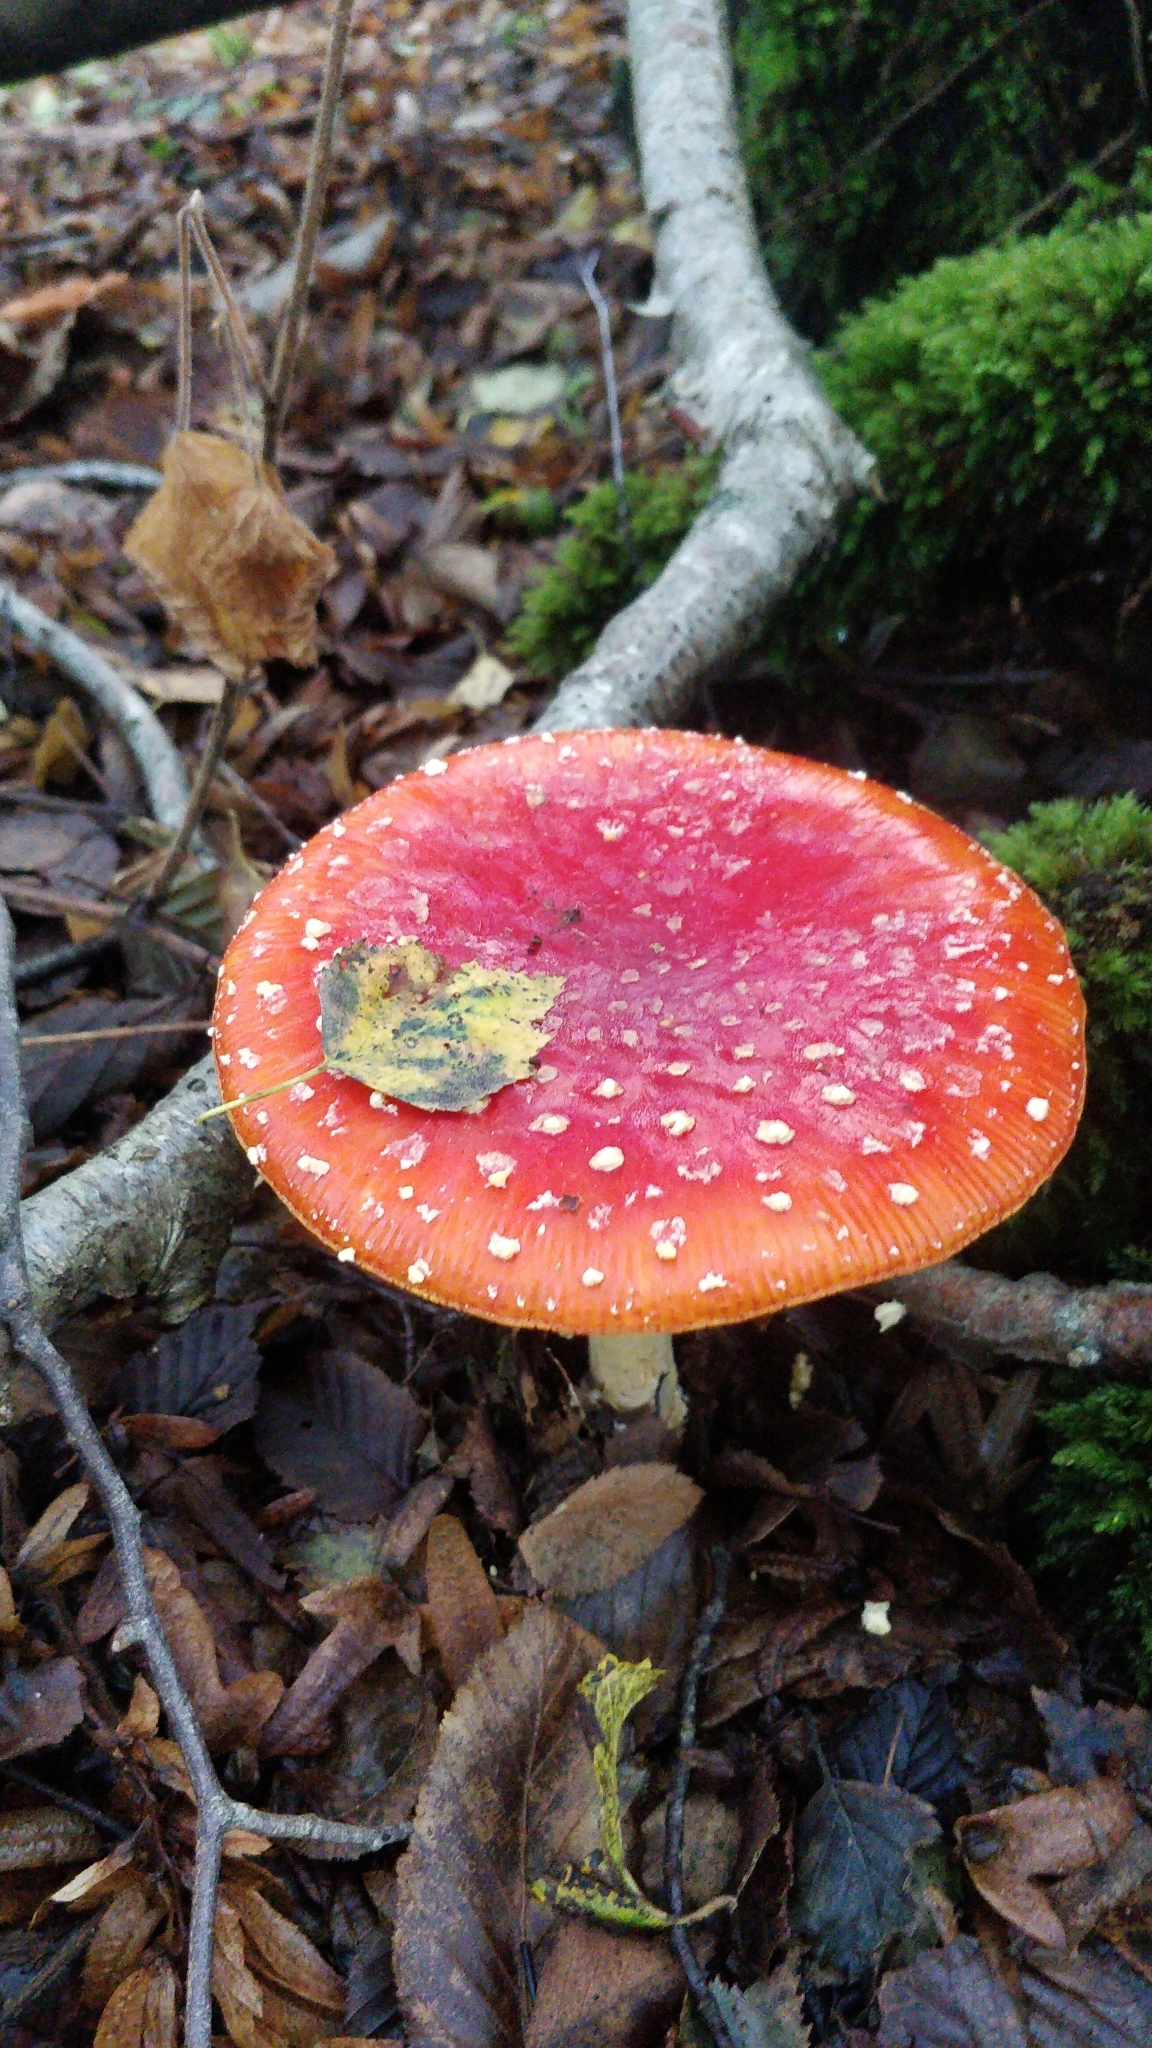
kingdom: Fungi
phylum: Basidiomycota
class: Agaricomycetes
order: Agaricales
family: Amanitaceae
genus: Amanita
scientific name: Amanita muscaria
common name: Fly agaric
